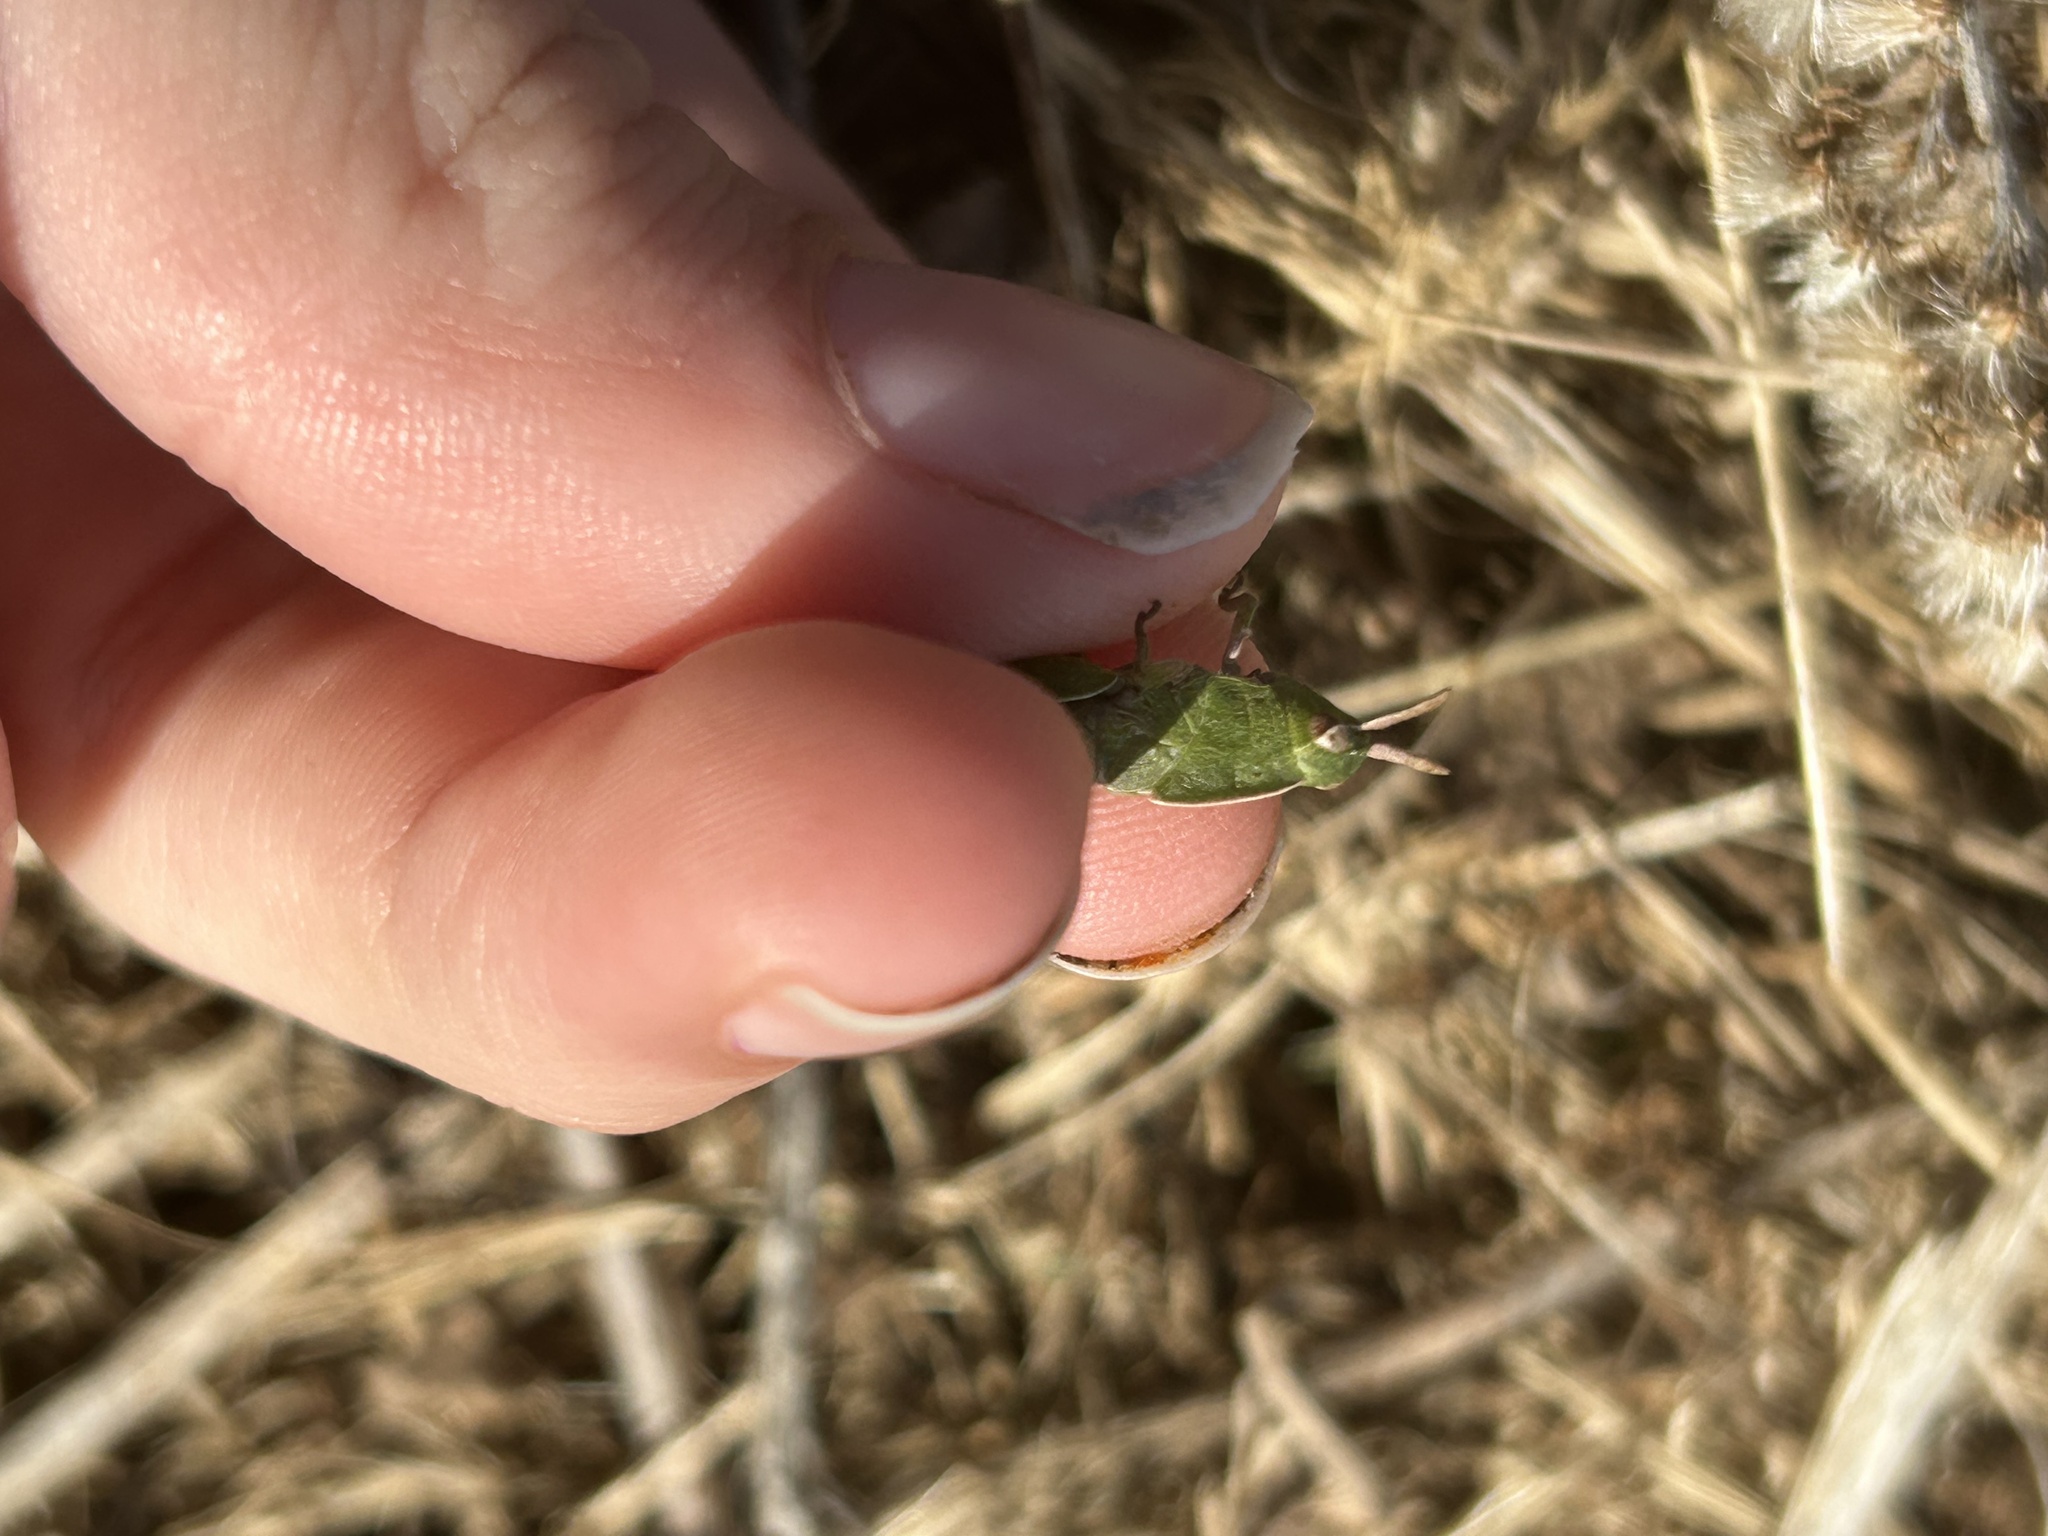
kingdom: Animalia
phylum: Arthropoda
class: Insecta
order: Orthoptera
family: Acrididae
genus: Chortophaga
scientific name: Chortophaga viridifasciata
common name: Green-striped grasshopper
